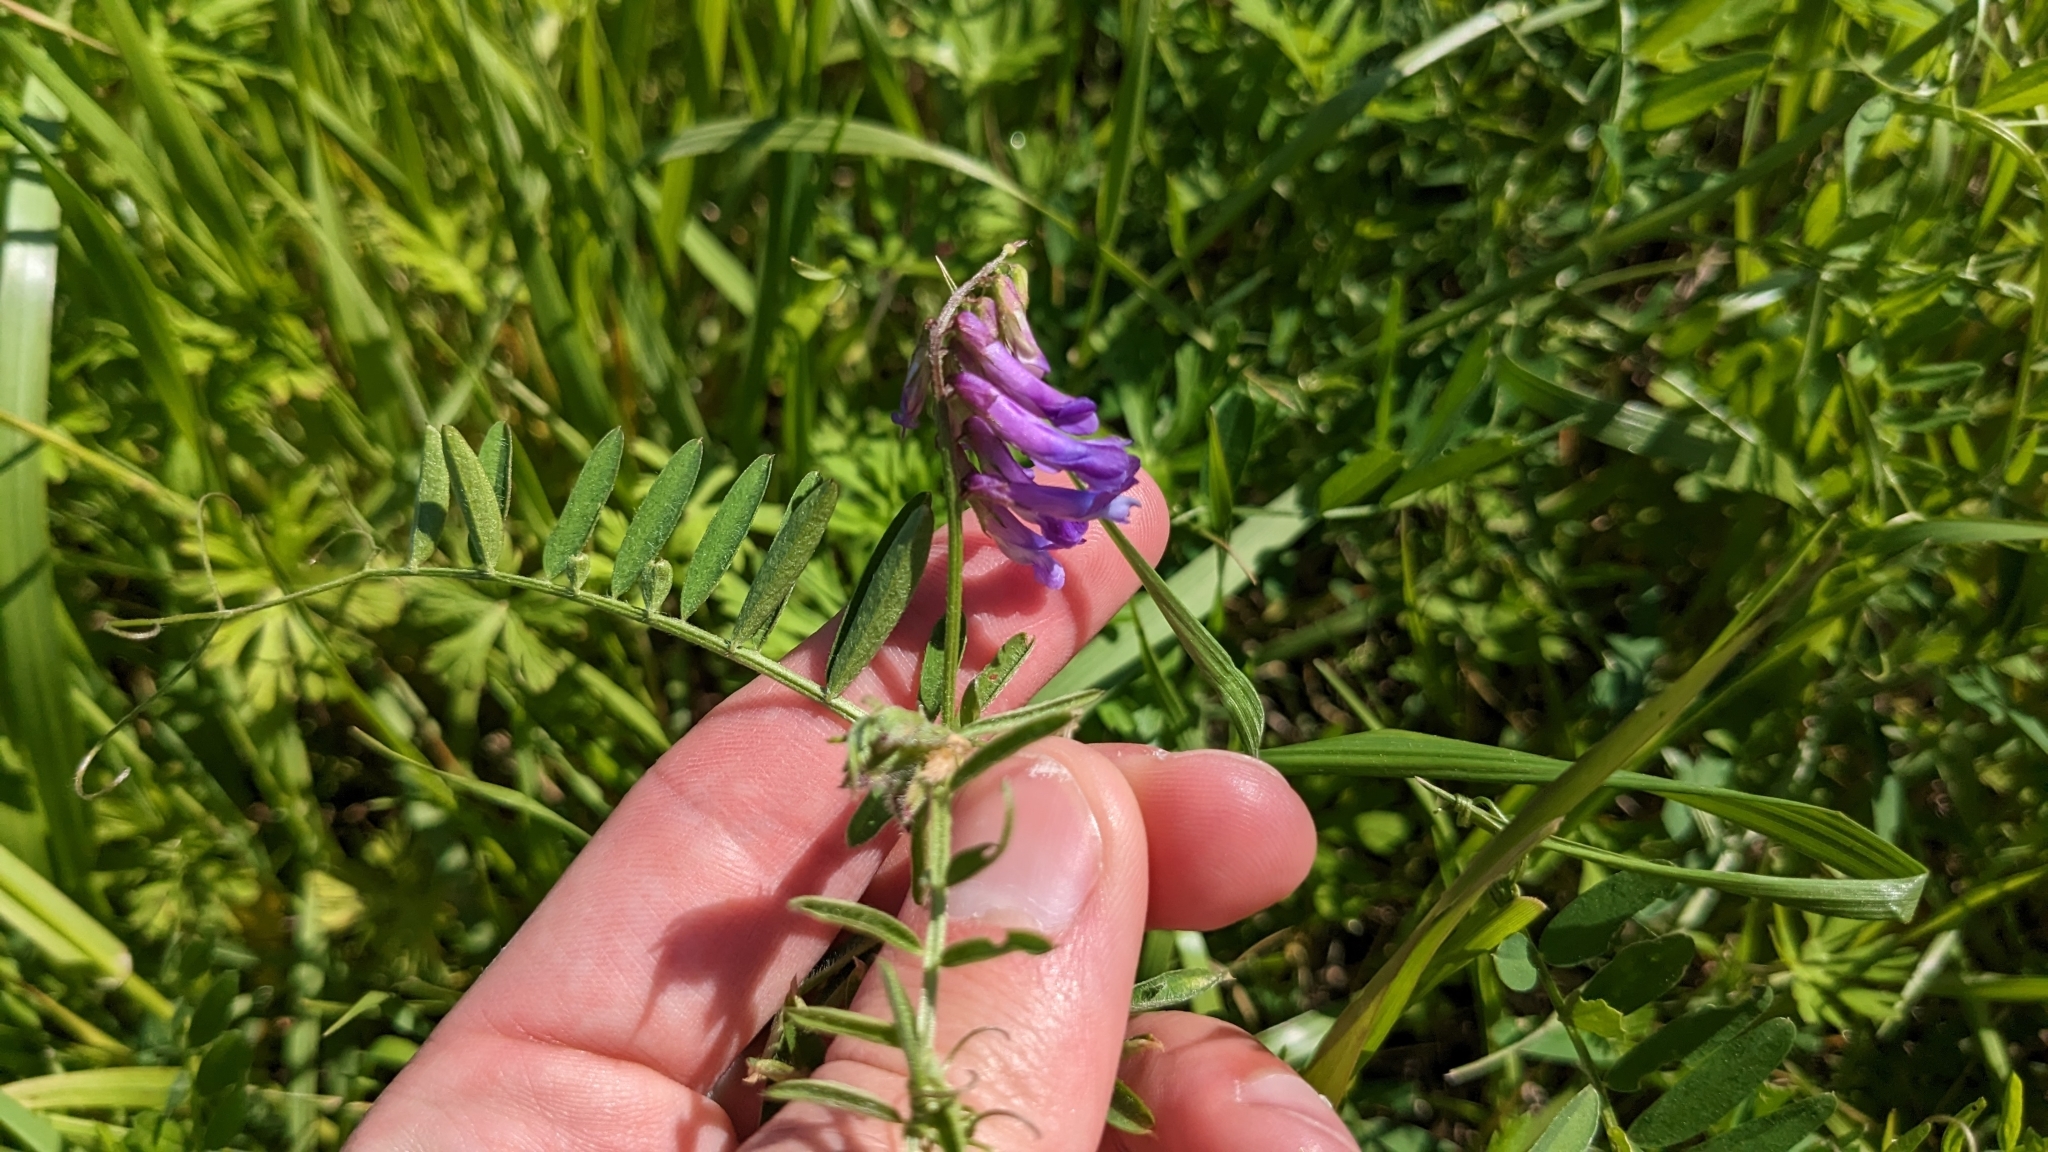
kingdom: Plantae
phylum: Tracheophyta
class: Magnoliopsida
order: Fabales
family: Fabaceae
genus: Vicia
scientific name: Vicia villosa
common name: Fodder vetch
